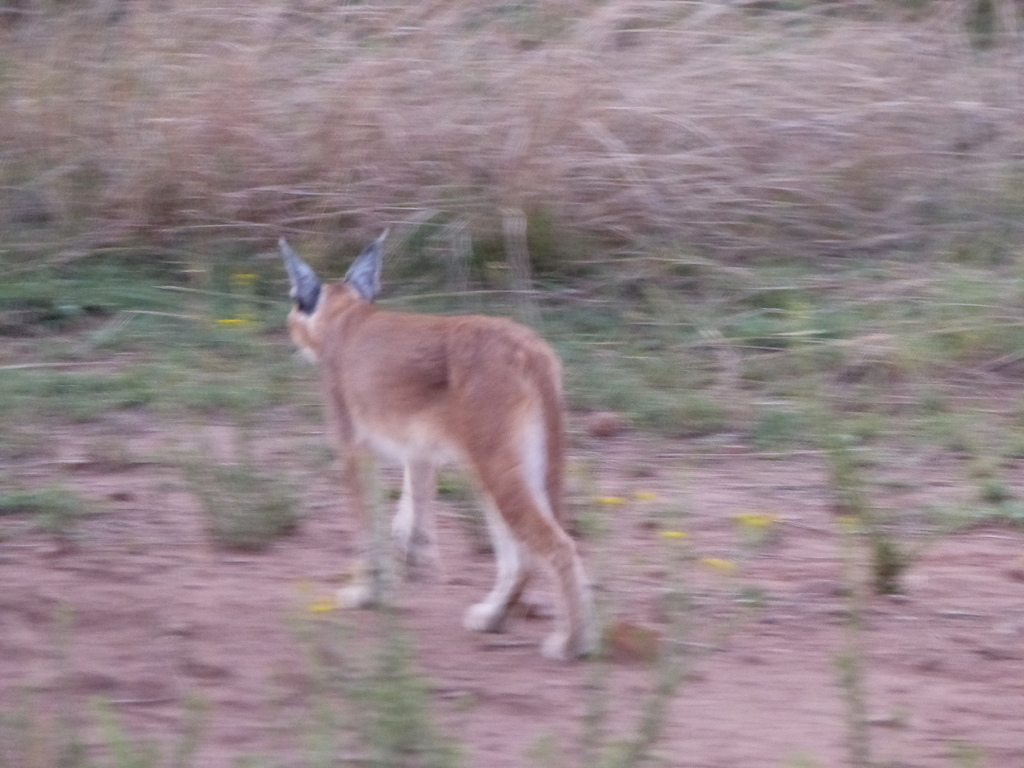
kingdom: Animalia
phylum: Chordata
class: Mammalia
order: Carnivora
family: Felidae
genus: Caracal
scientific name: Caracal caracal
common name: Caracal
